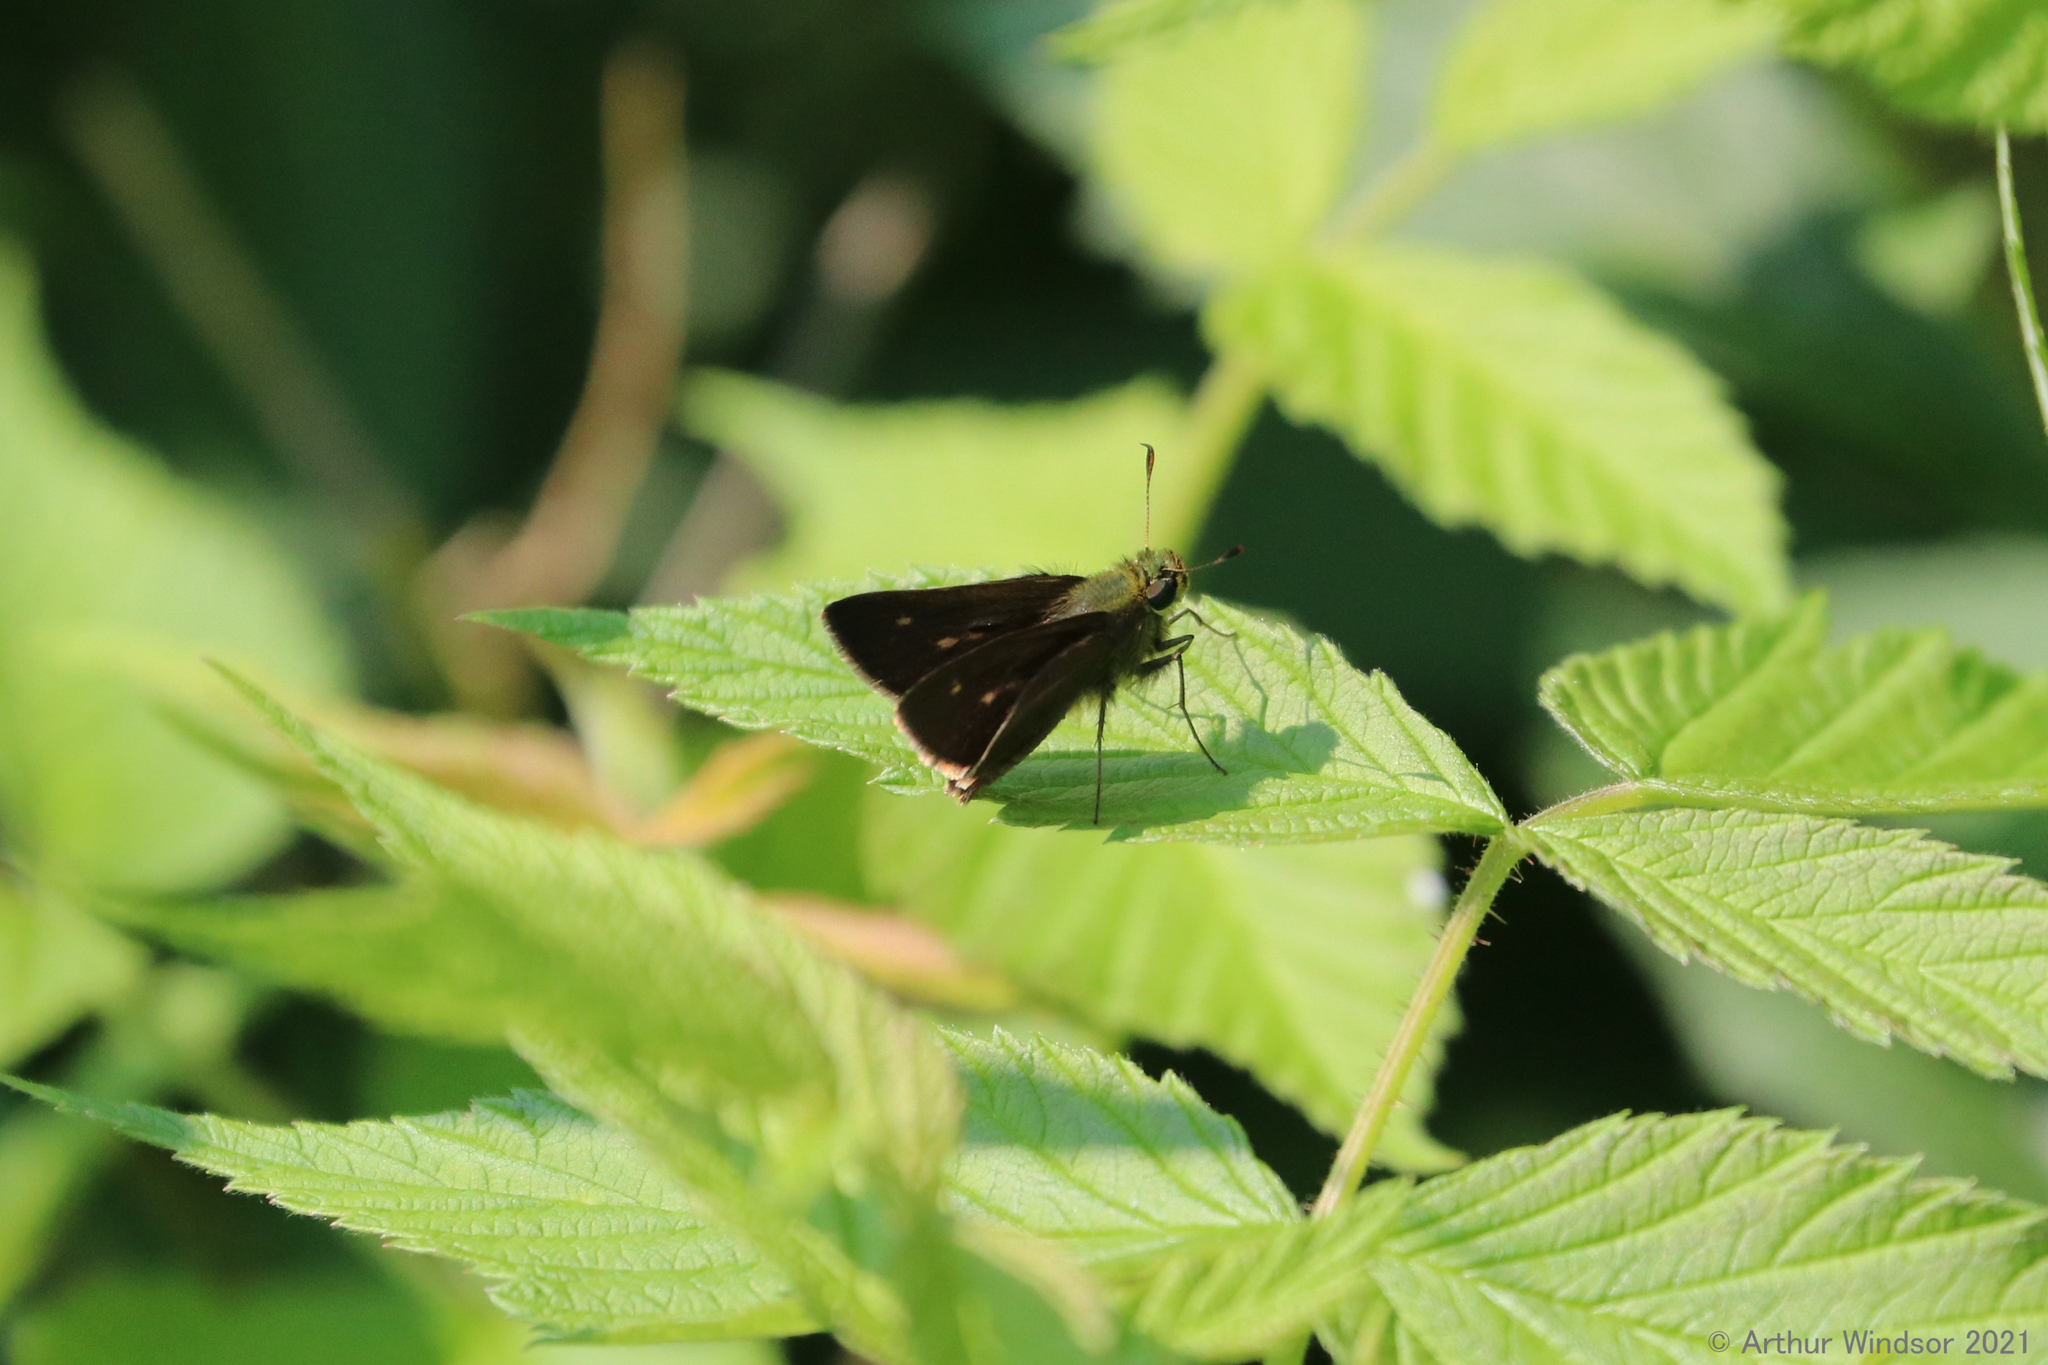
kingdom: Animalia
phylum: Arthropoda
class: Insecta
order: Lepidoptera
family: Hesperiidae
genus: Euphyes
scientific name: Euphyes vestris
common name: Dun skipper
